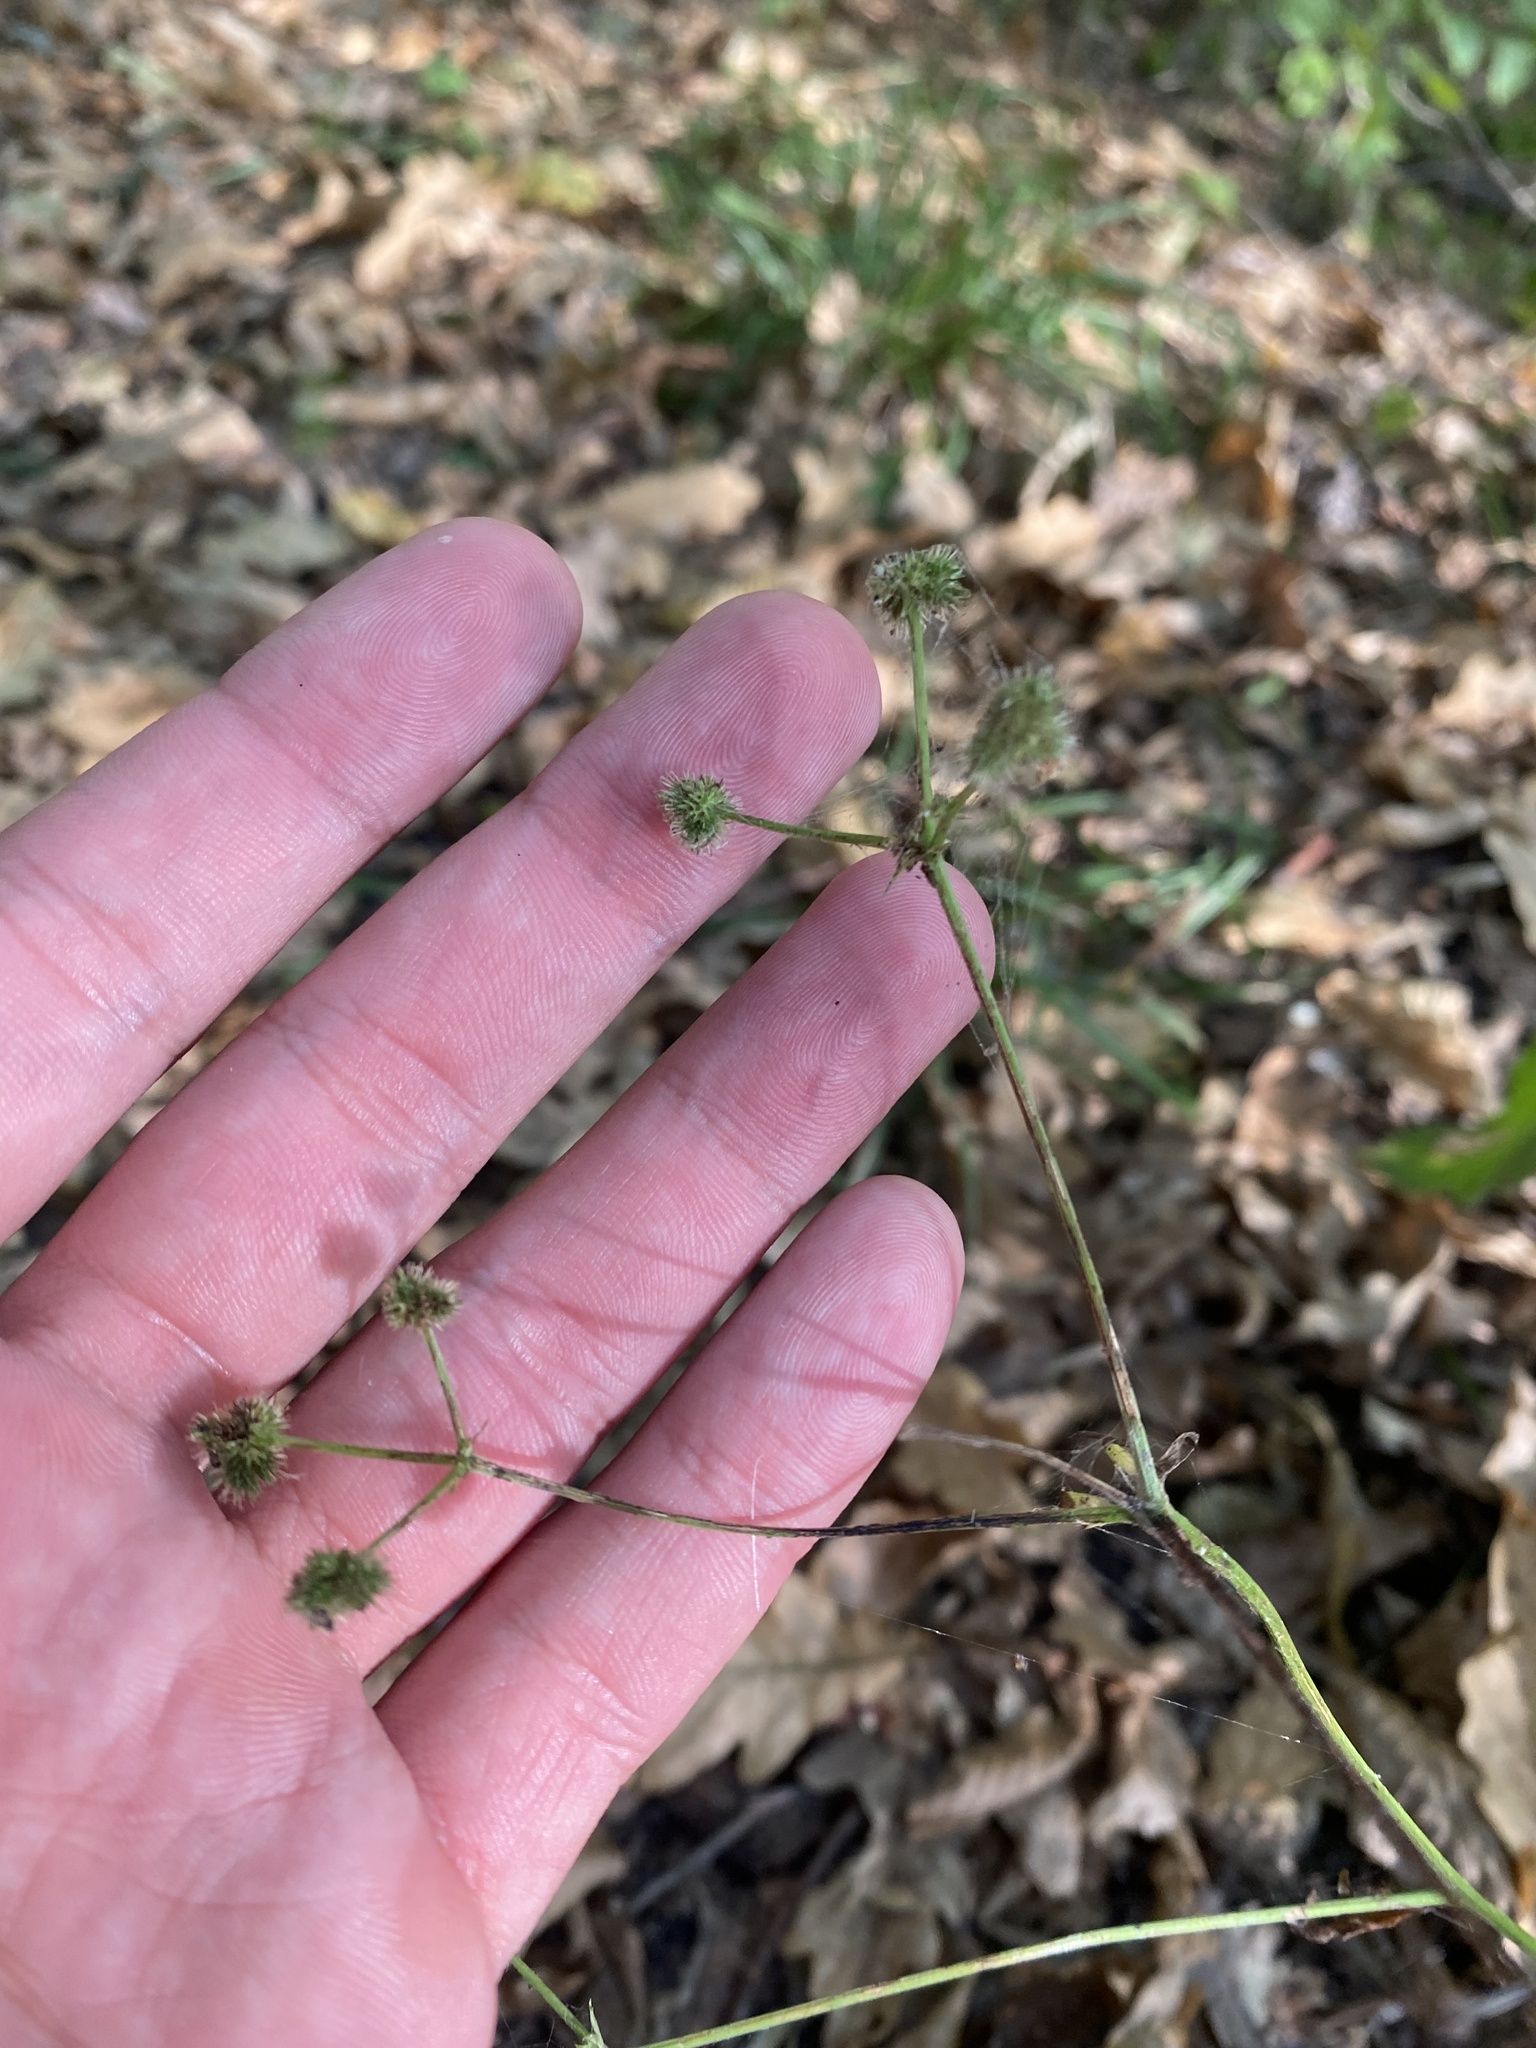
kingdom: Plantae
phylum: Tracheophyta
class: Magnoliopsida
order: Apiales
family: Apiaceae
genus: Sanicula
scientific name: Sanicula europaea
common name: Sanicle
